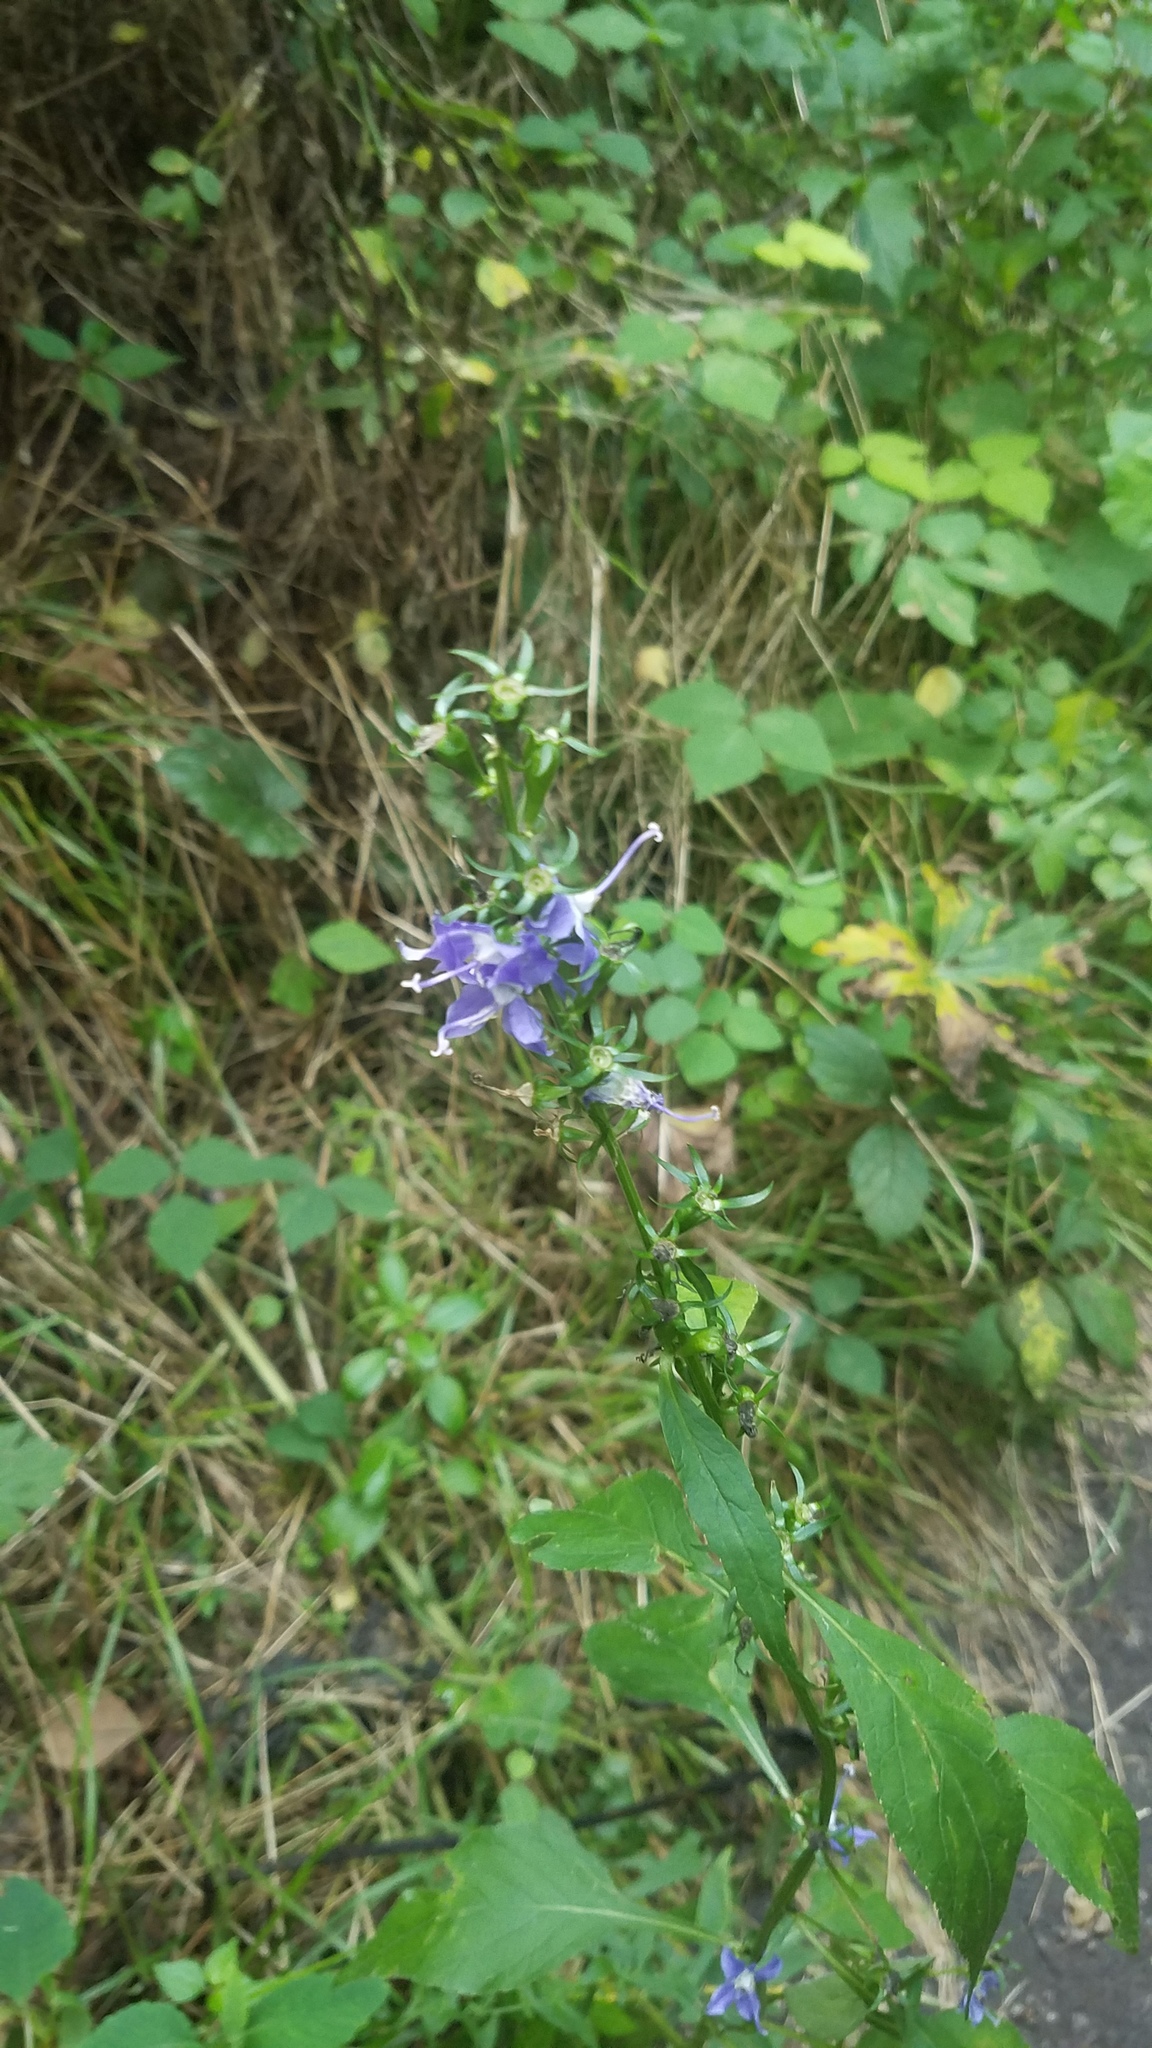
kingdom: Plantae
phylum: Tracheophyta
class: Magnoliopsida
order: Asterales
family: Campanulaceae
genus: Campanulastrum
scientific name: Campanulastrum americanum
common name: American bellflower
